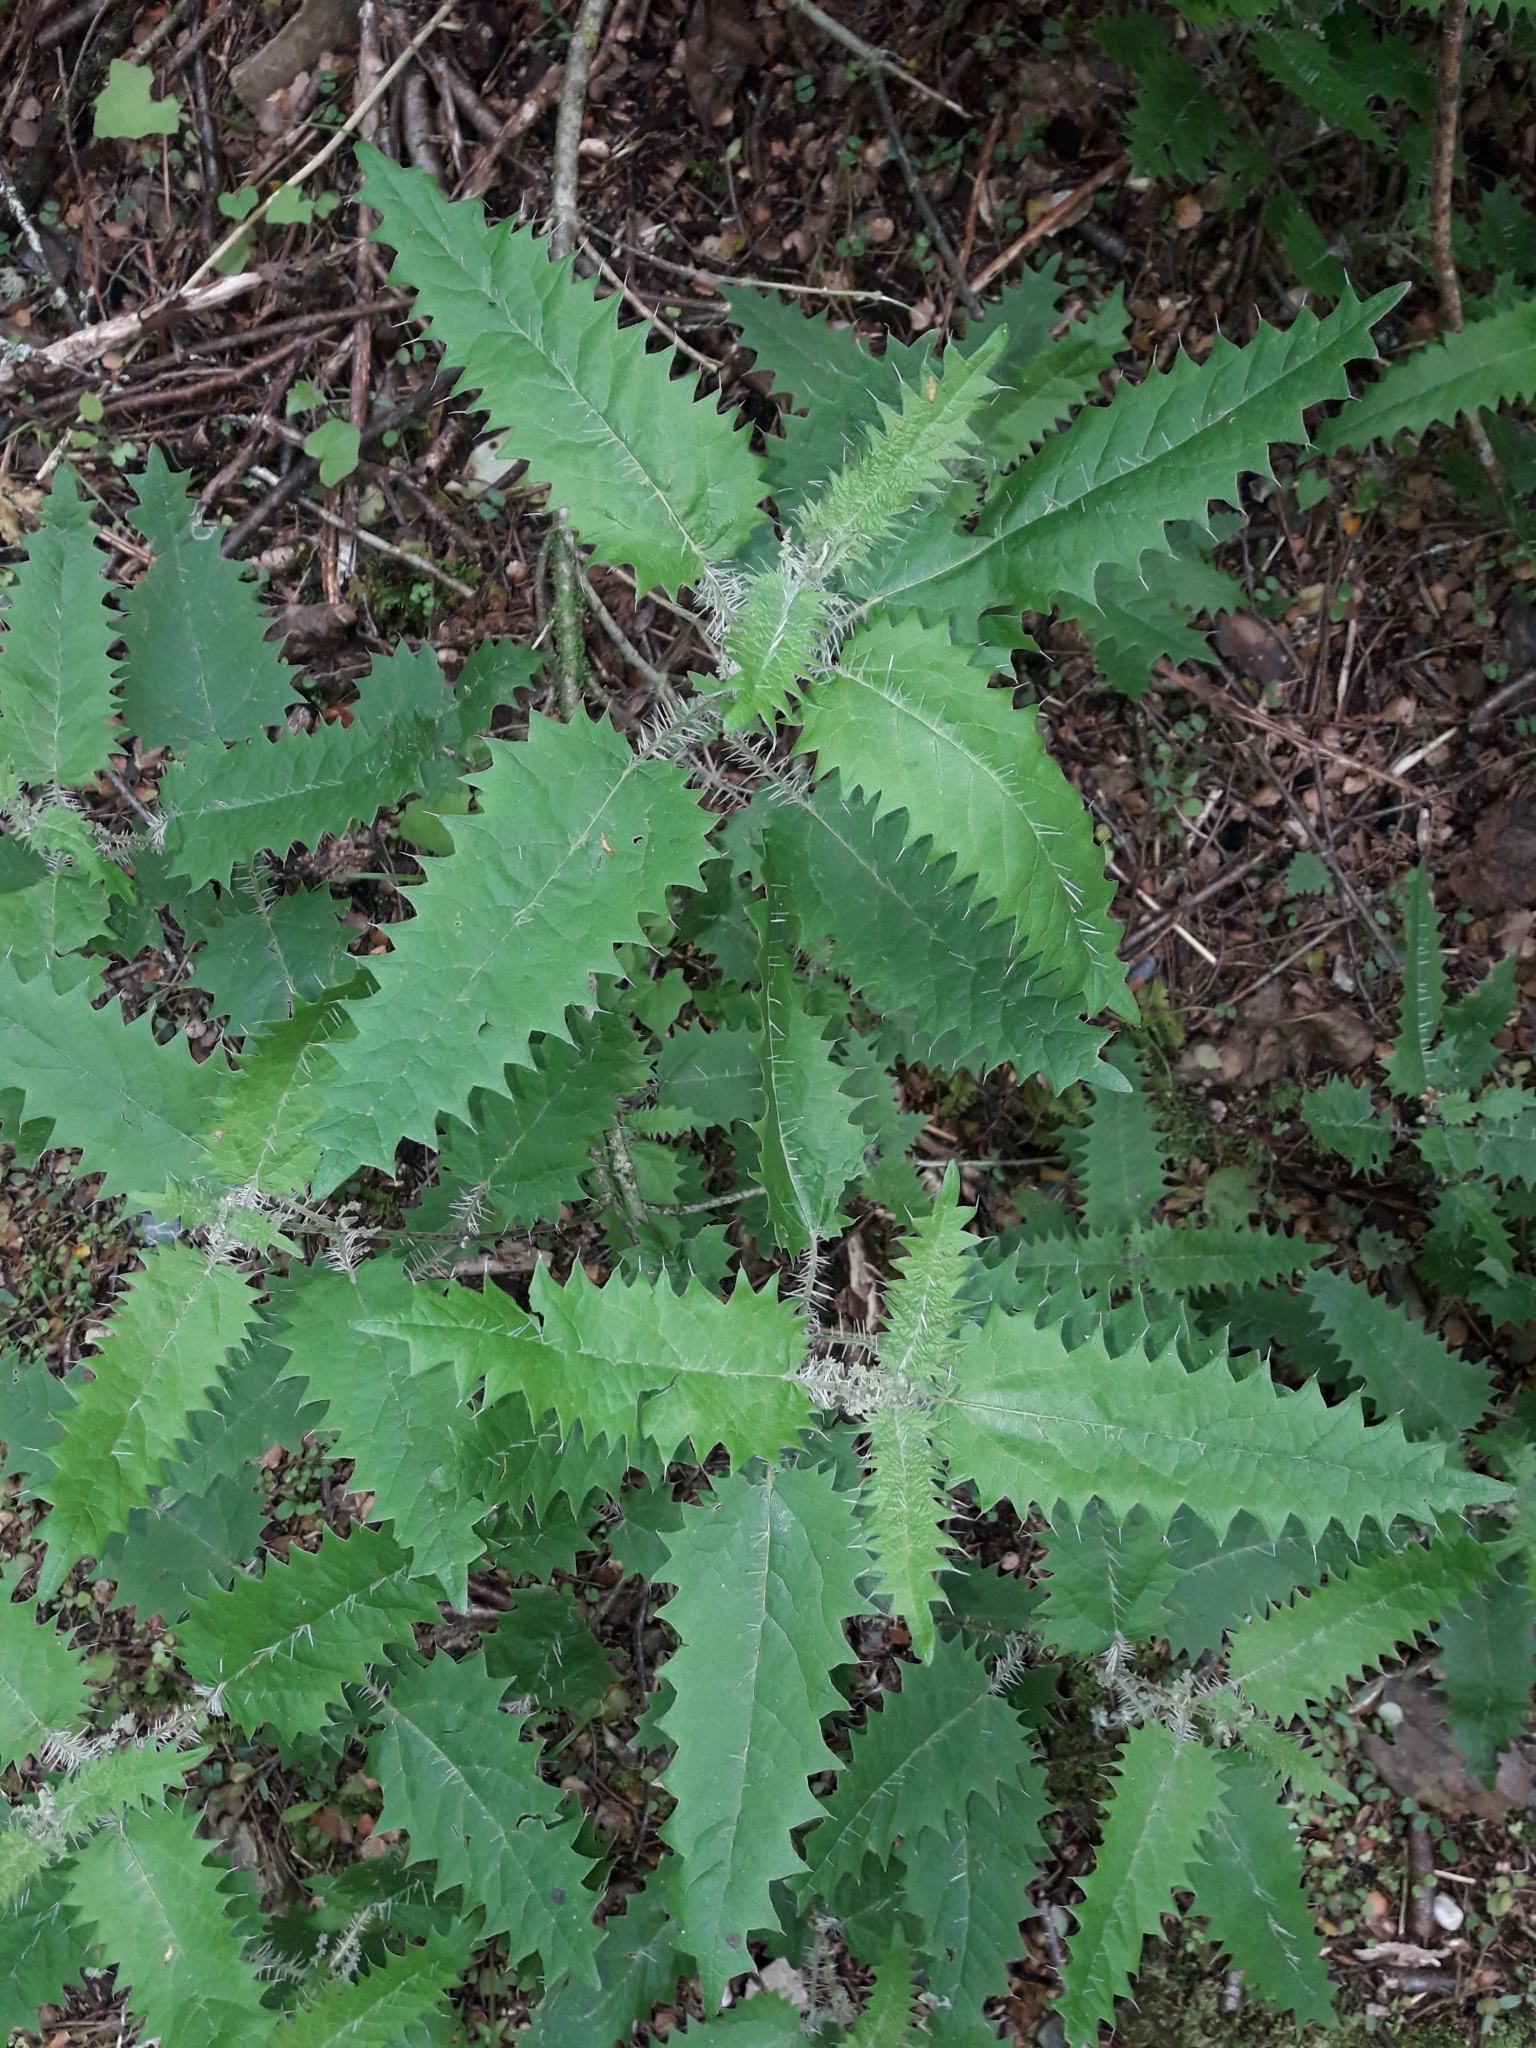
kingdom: Plantae
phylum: Tracheophyta
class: Magnoliopsida
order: Rosales
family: Urticaceae
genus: Urtica
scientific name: Urtica ferox
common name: Tree nettle
